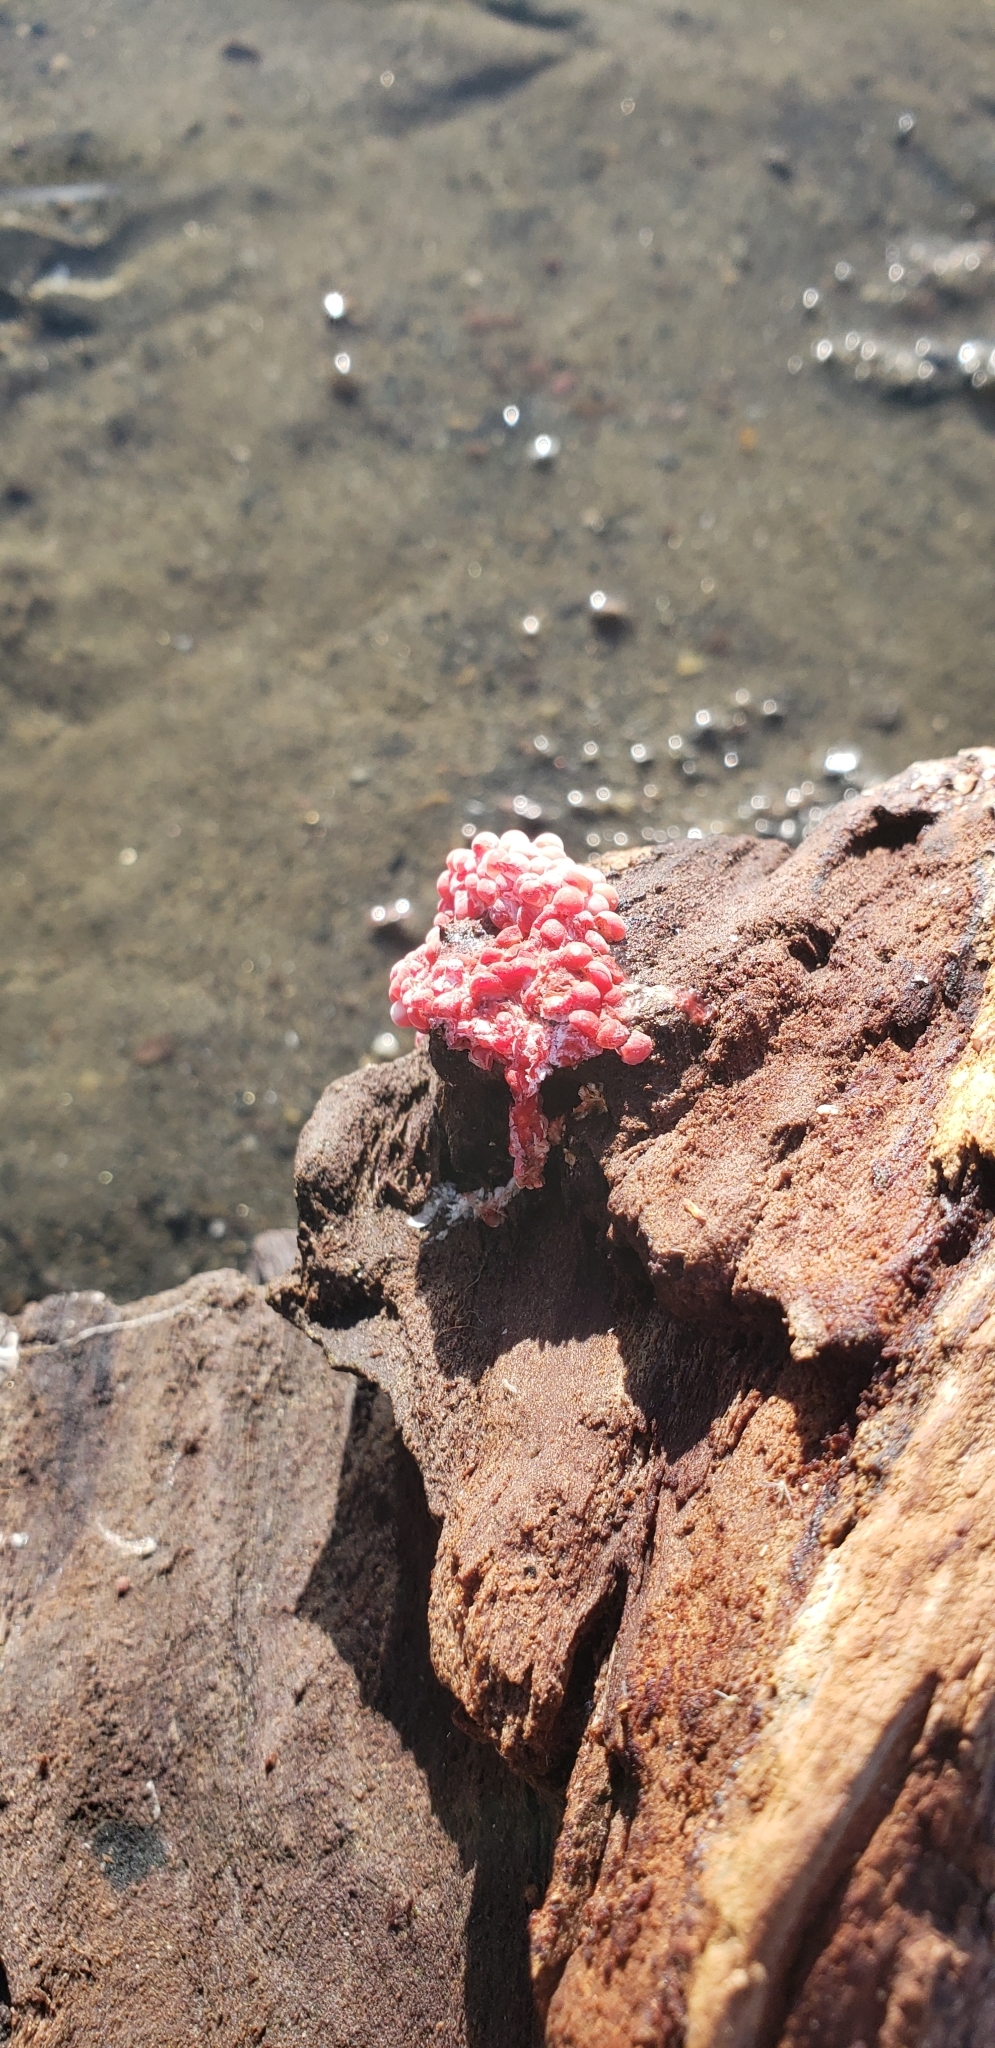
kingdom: Animalia
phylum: Mollusca
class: Gastropoda
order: Architaenioglossa
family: Ampullariidae
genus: Pomacea
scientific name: Pomacea canaliculata
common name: Channeled applesnail
